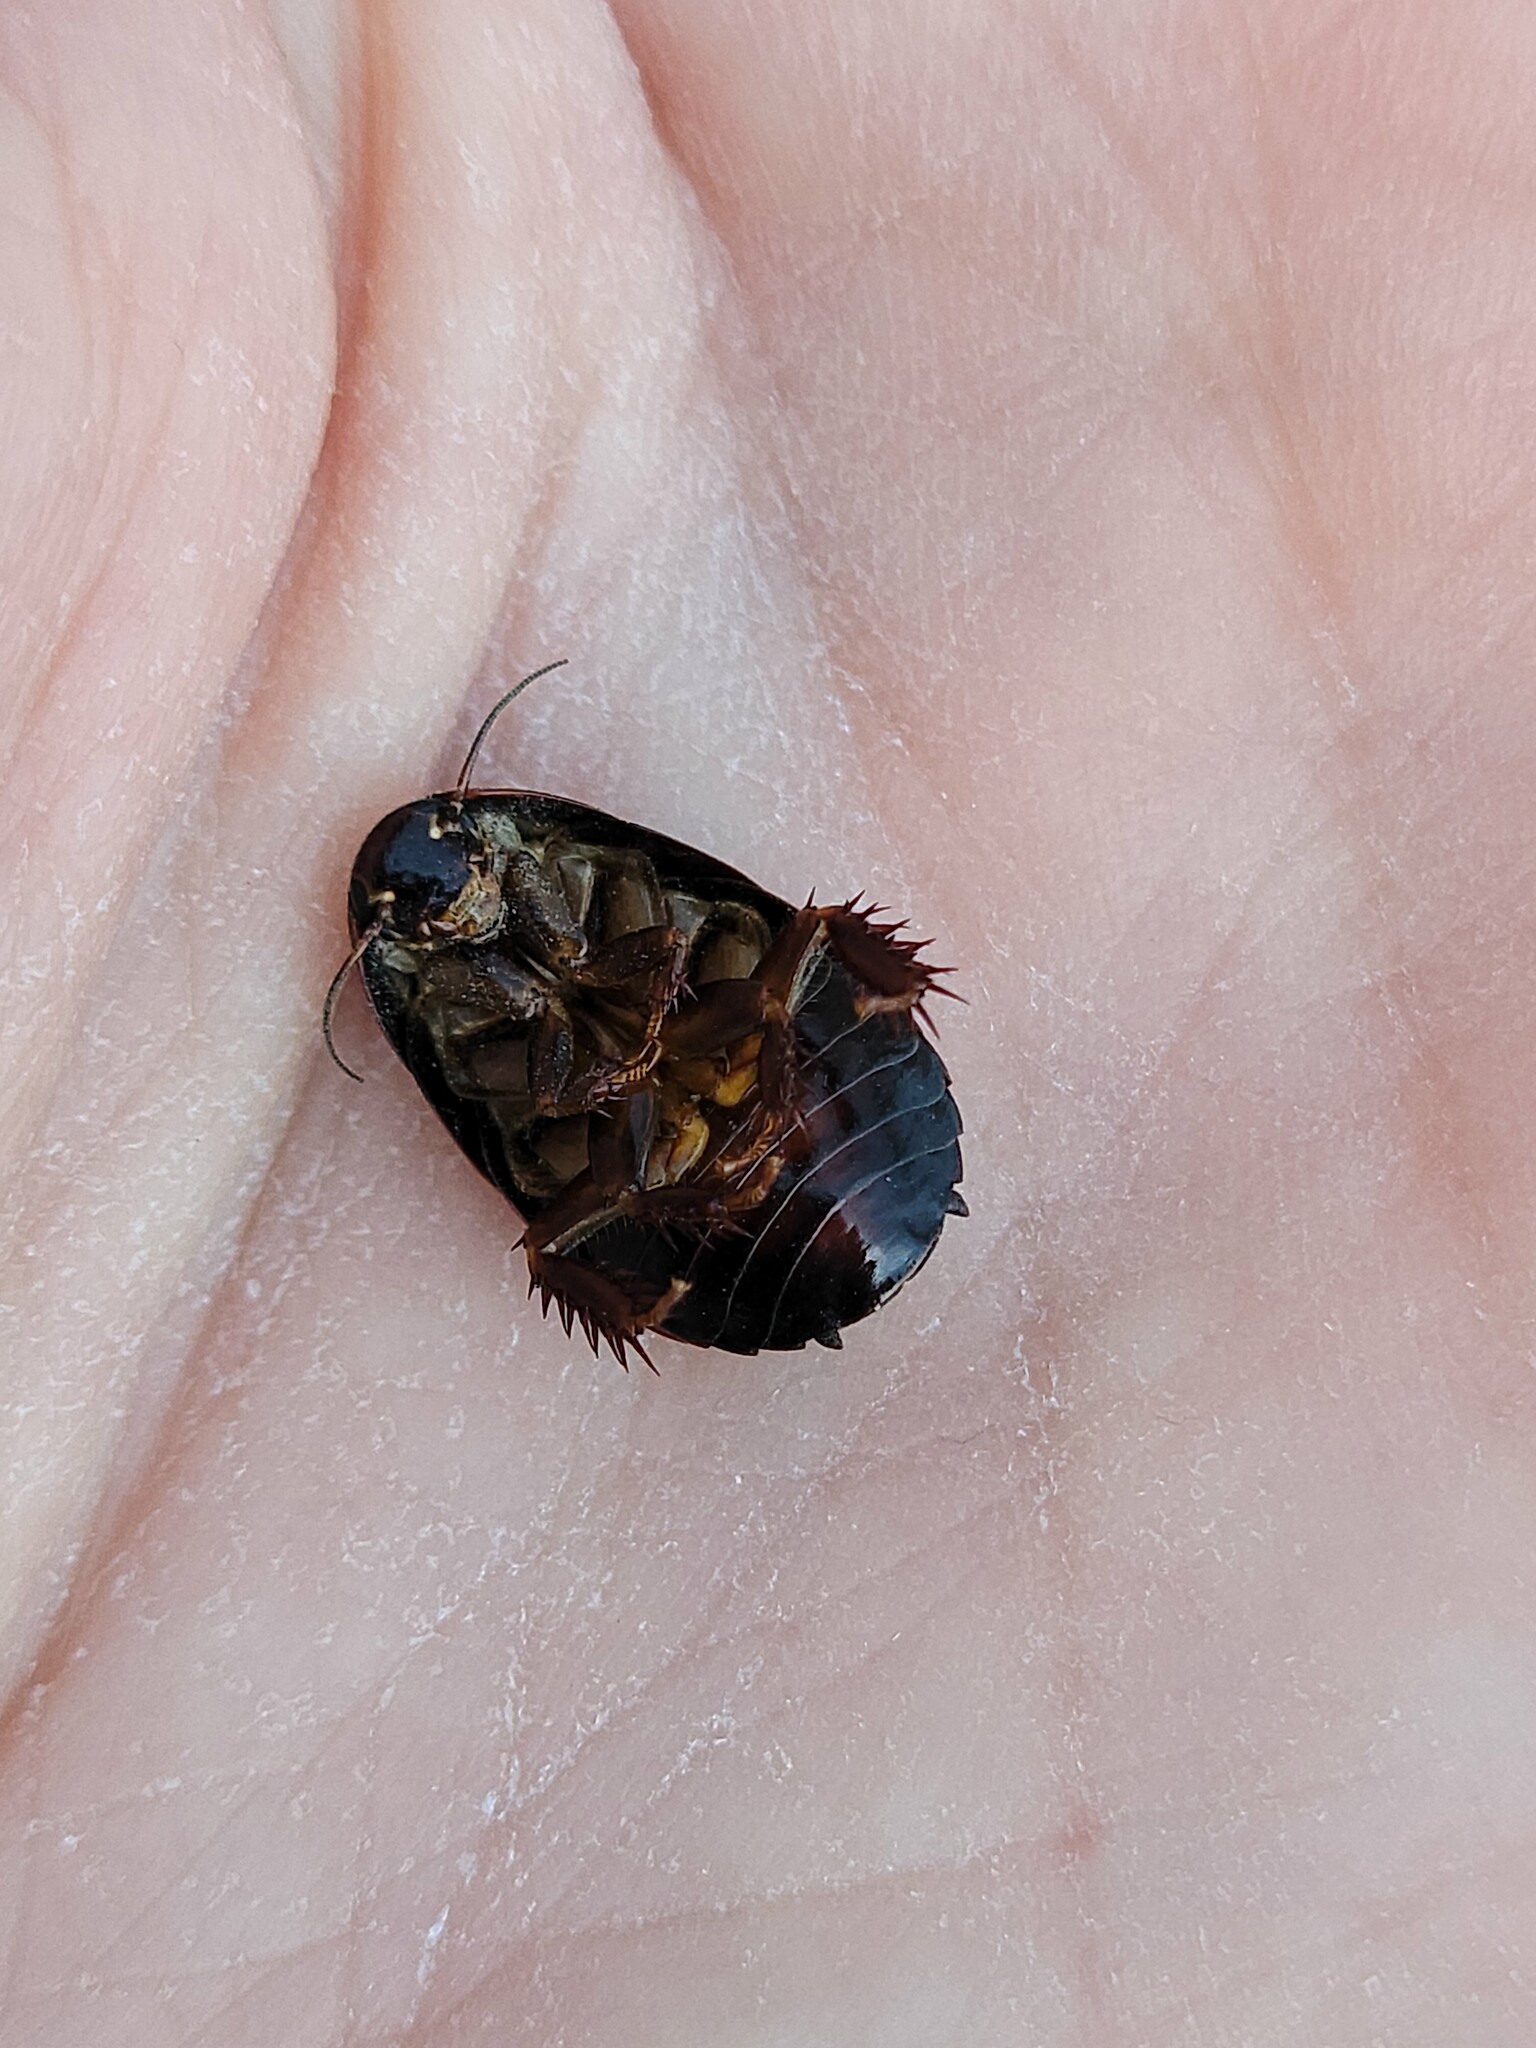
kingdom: Animalia
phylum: Arthropoda
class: Insecta
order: Blattodea
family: Blaberidae
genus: Pycnoscelus
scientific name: Pycnoscelus surinamensis
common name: Surinam cockroach
